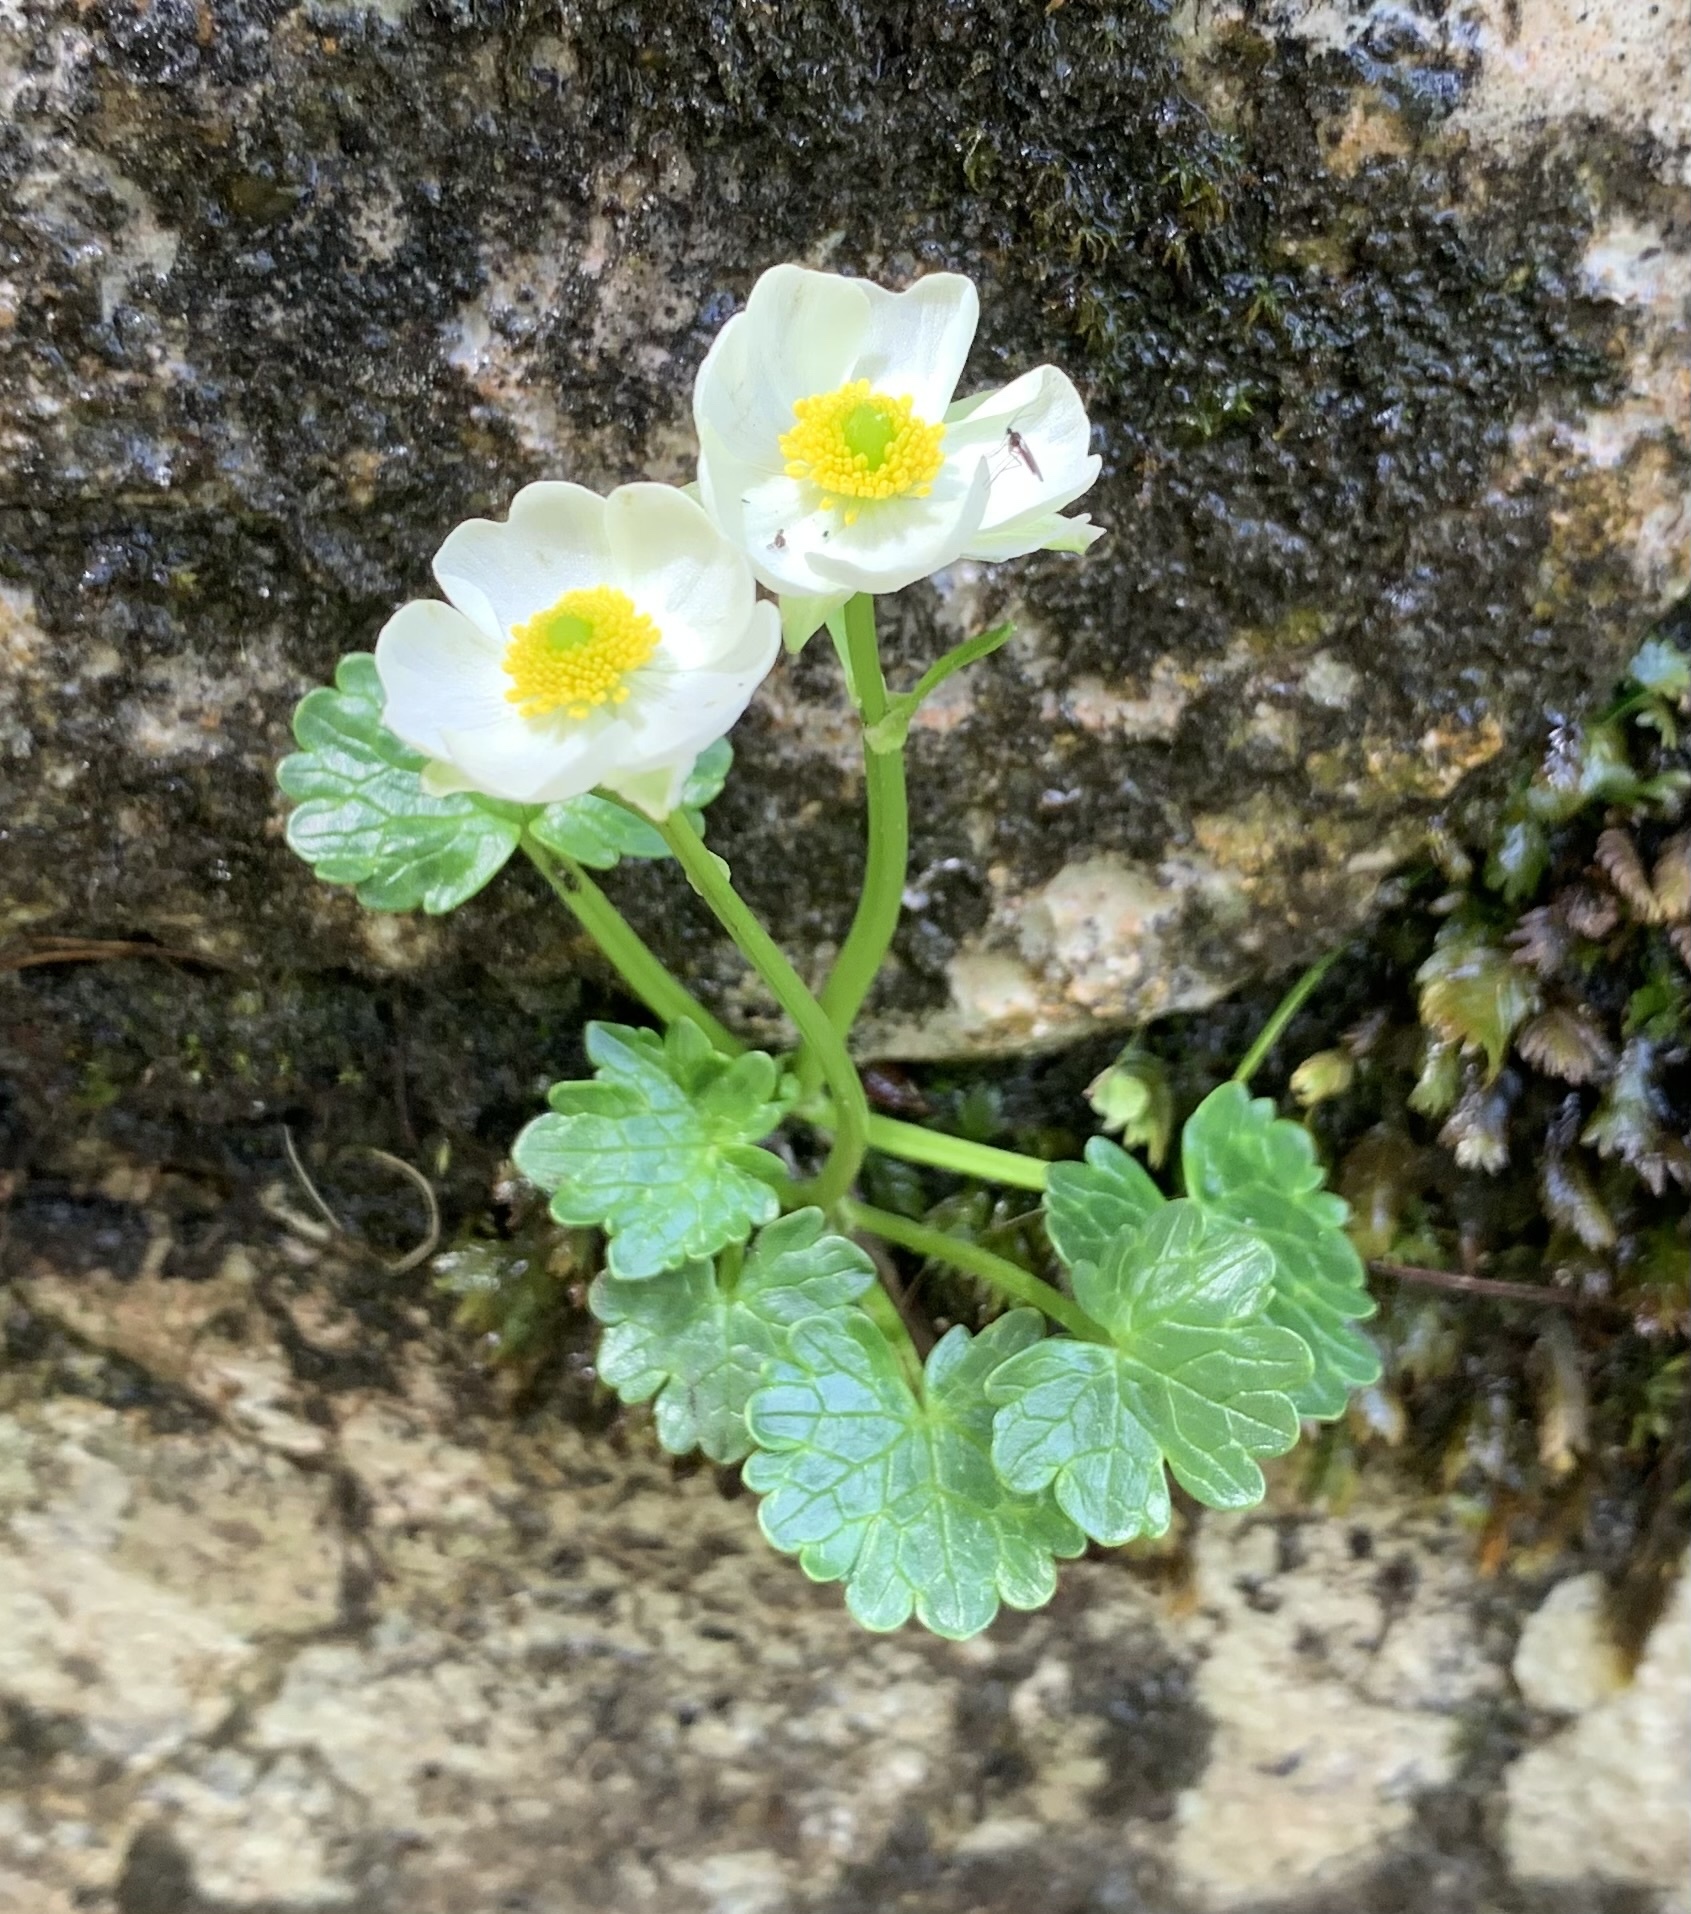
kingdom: Plantae
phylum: Tracheophyta
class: Magnoliopsida
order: Ranunculales
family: Ranunculaceae
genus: Ranunculus
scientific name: Ranunculus alpestris
